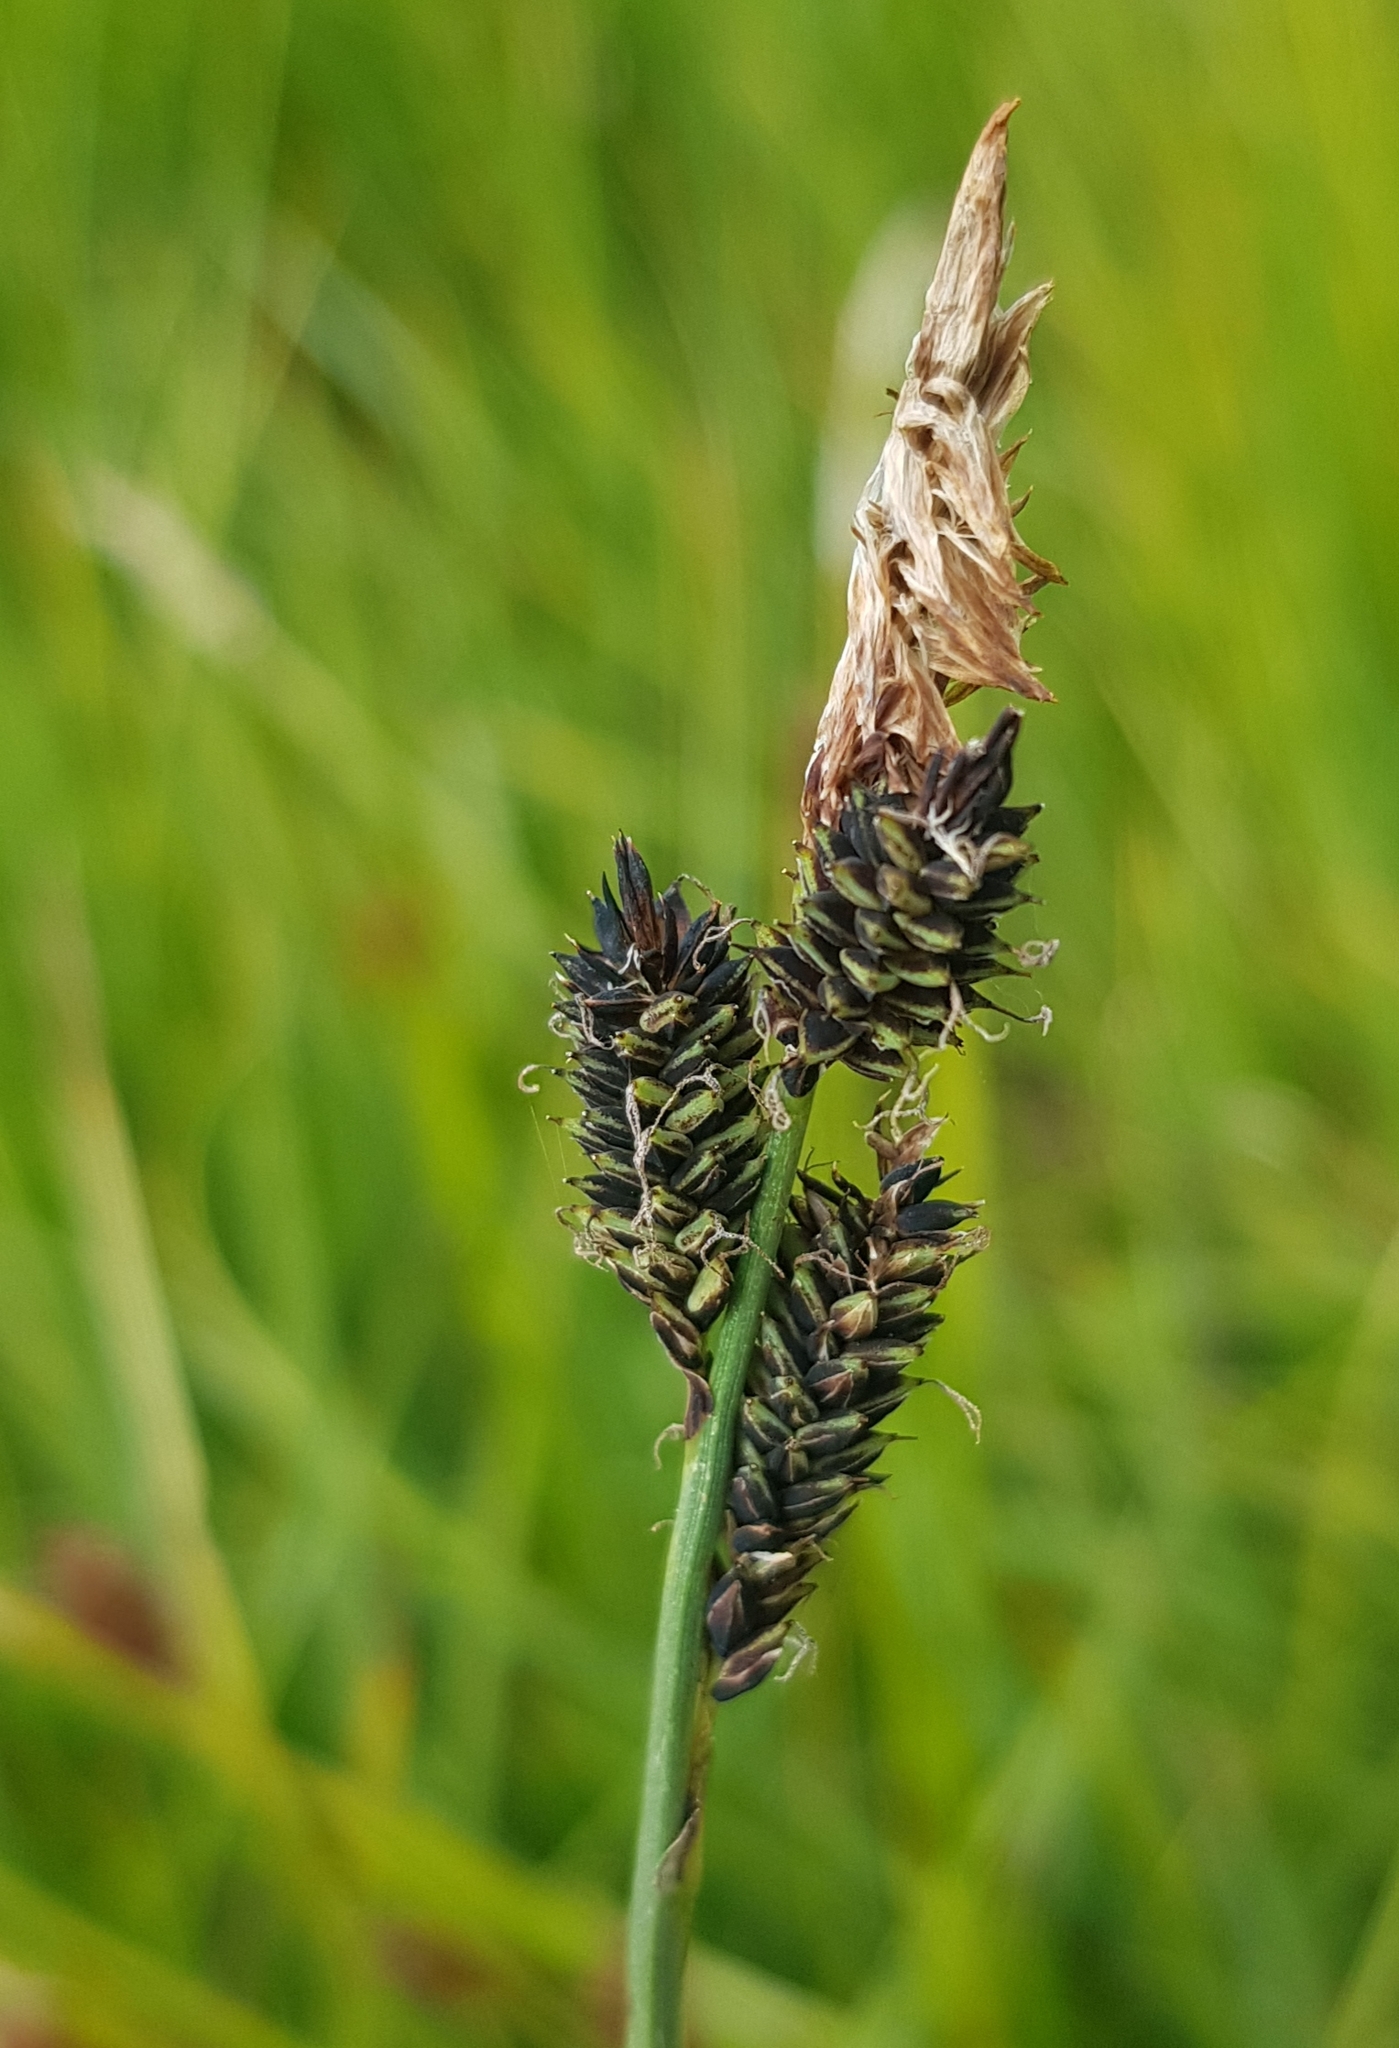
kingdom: Plantae
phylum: Tracheophyta
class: Liliopsida
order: Poales
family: Cyperaceae
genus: Carex
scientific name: Carex bigelowii
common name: Stiff sedge
